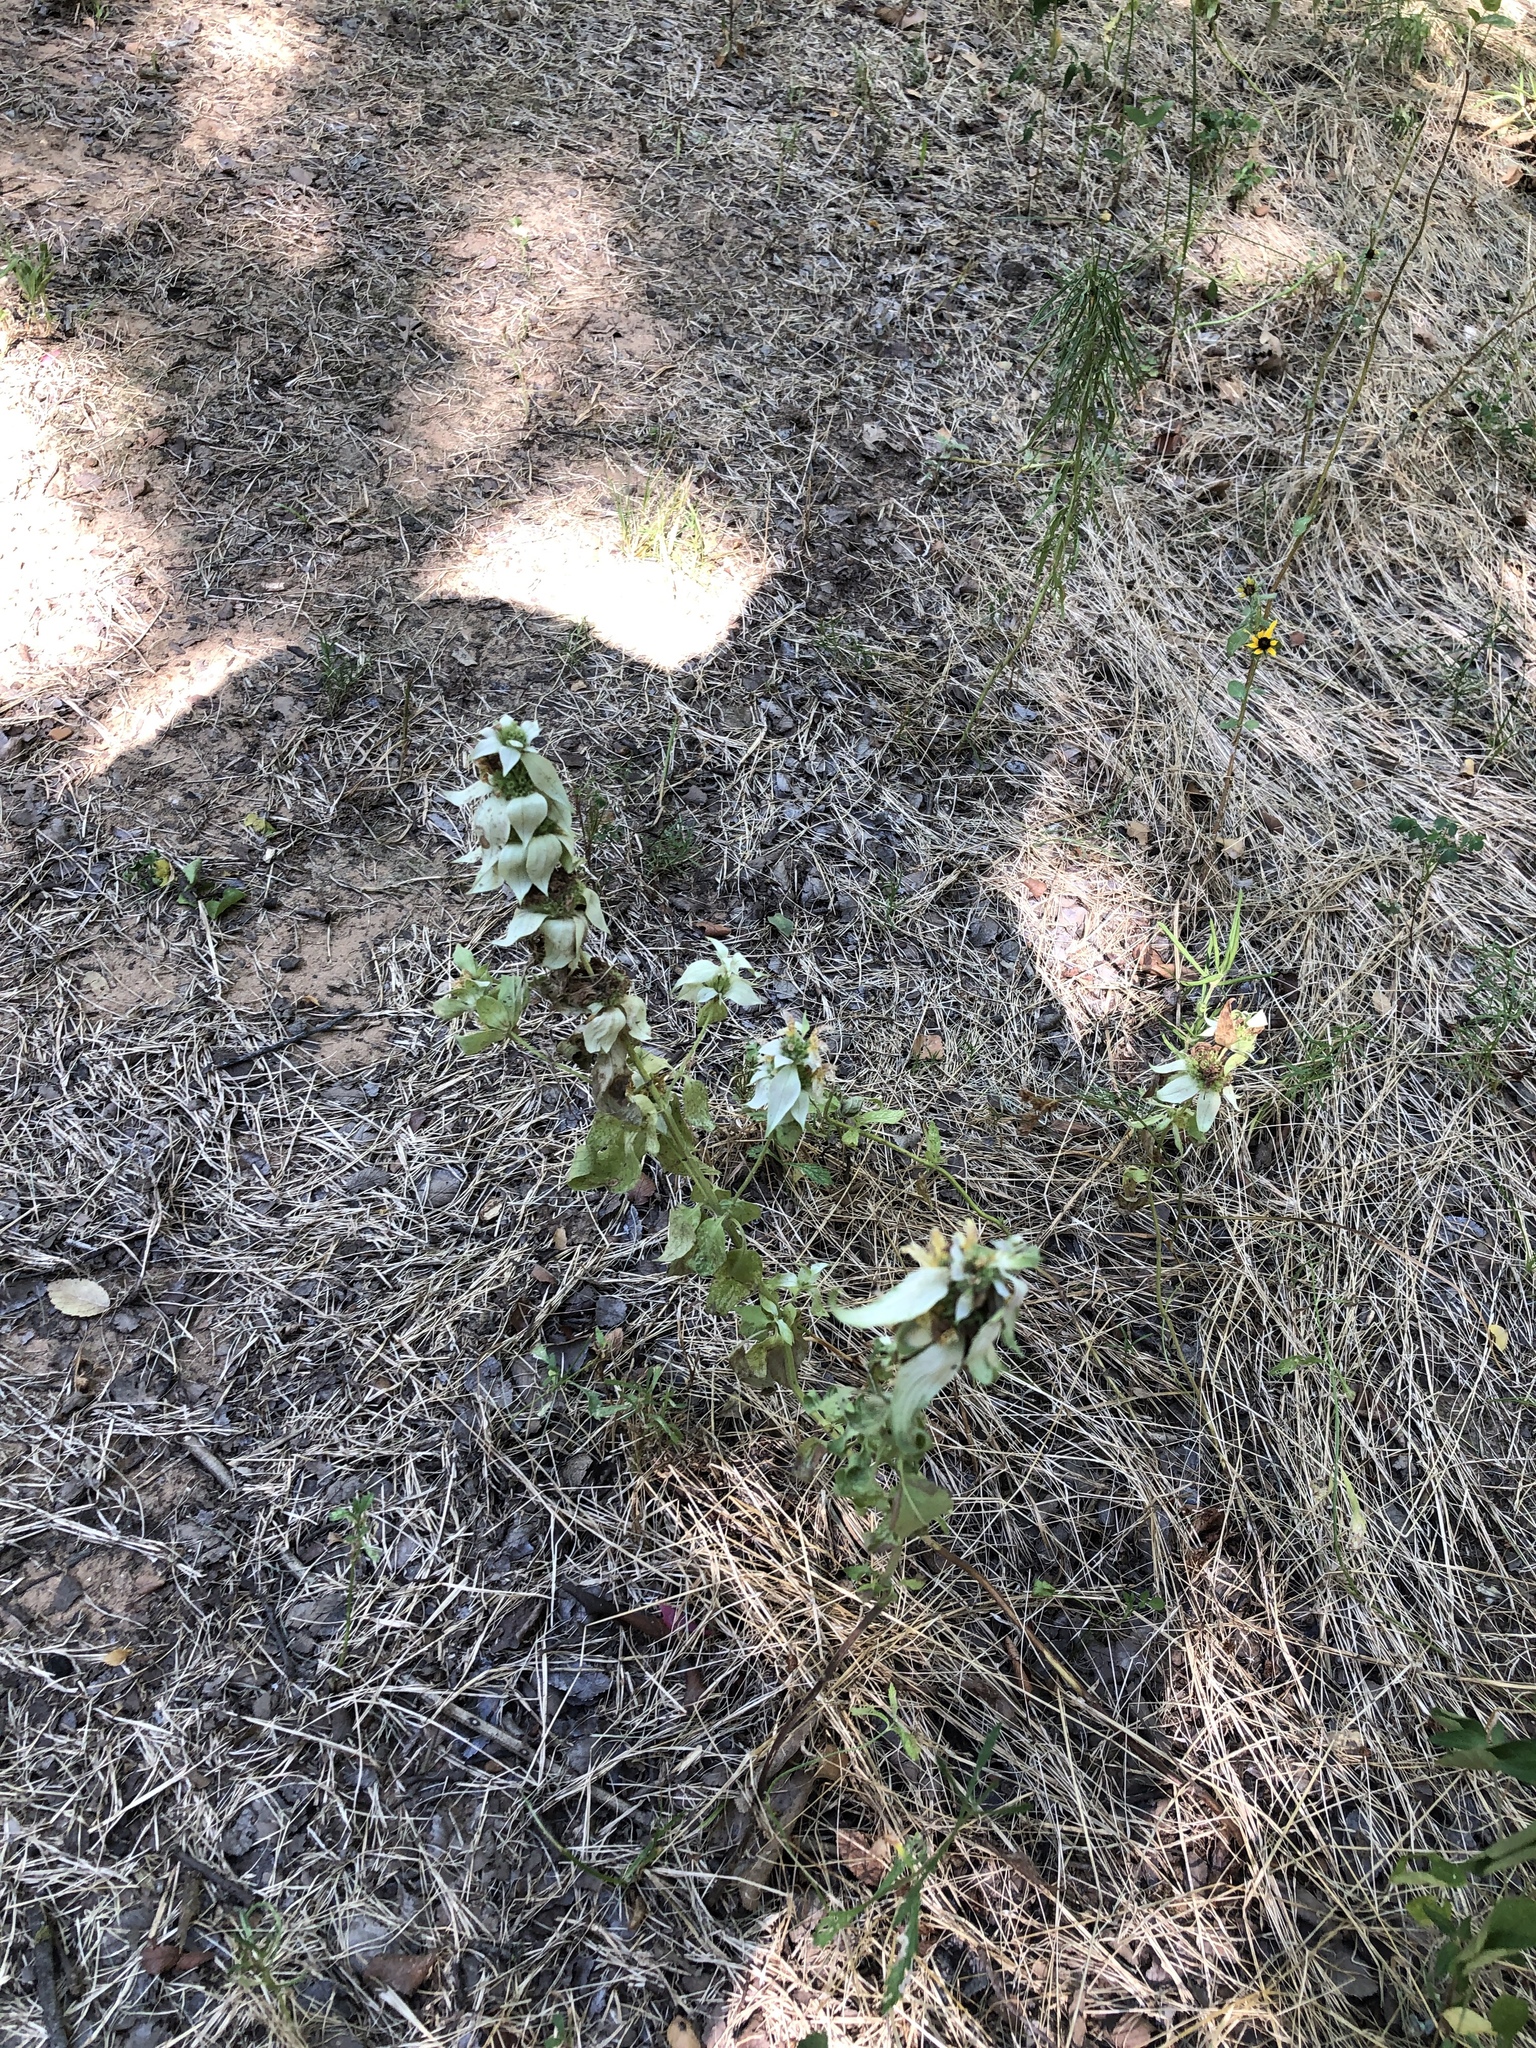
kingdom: Plantae
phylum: Tracheophyta
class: Magnoliopsida
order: Lamiales
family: Lamiaceae
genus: Monarda
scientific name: Monarda punctata
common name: Dotted monarda
